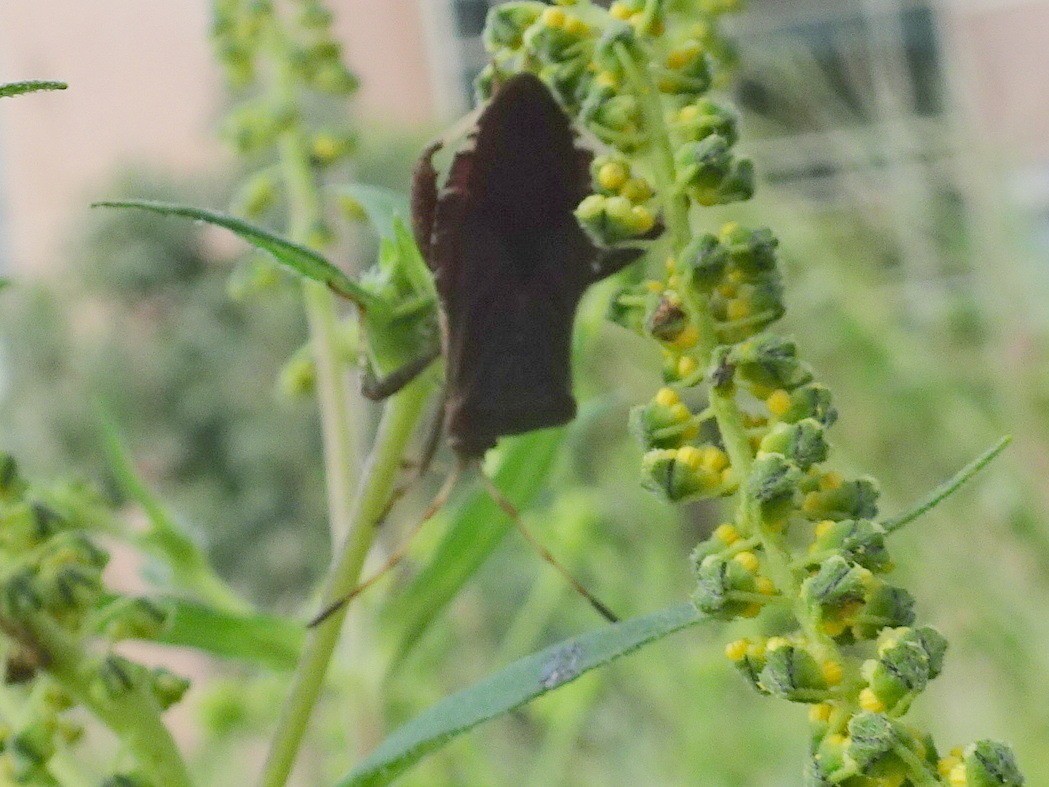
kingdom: Animalia
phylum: Arthropoda
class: Insecta
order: Hemiptera
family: Coreidae
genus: Euthochtha
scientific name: Euthochtha galeator
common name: Helmeted squash bug
